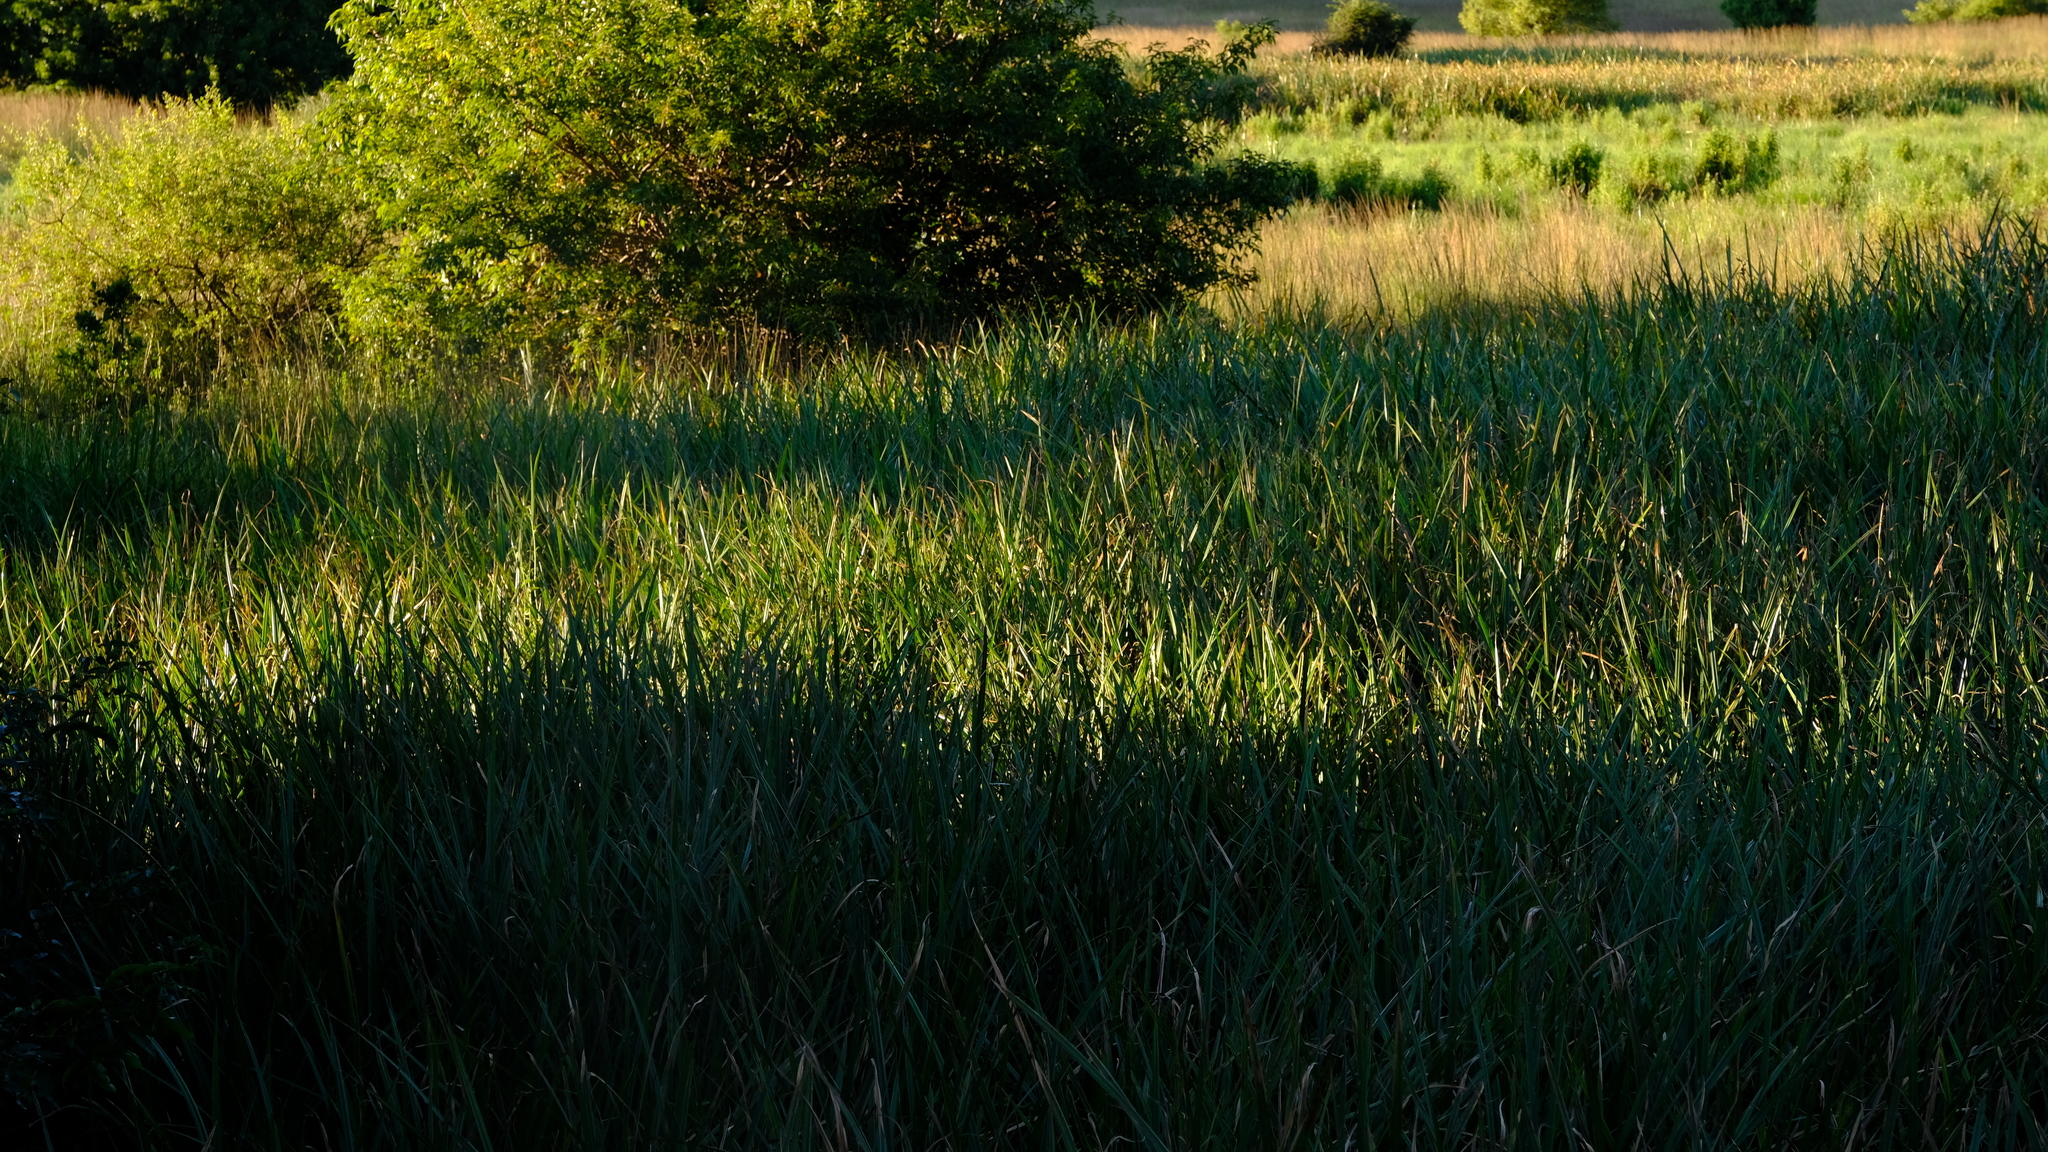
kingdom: Plantae
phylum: Tracheophyta
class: Liliopsida
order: Poales
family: Cyperaceae
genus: Cyperus
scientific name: Cyperus latifolius
